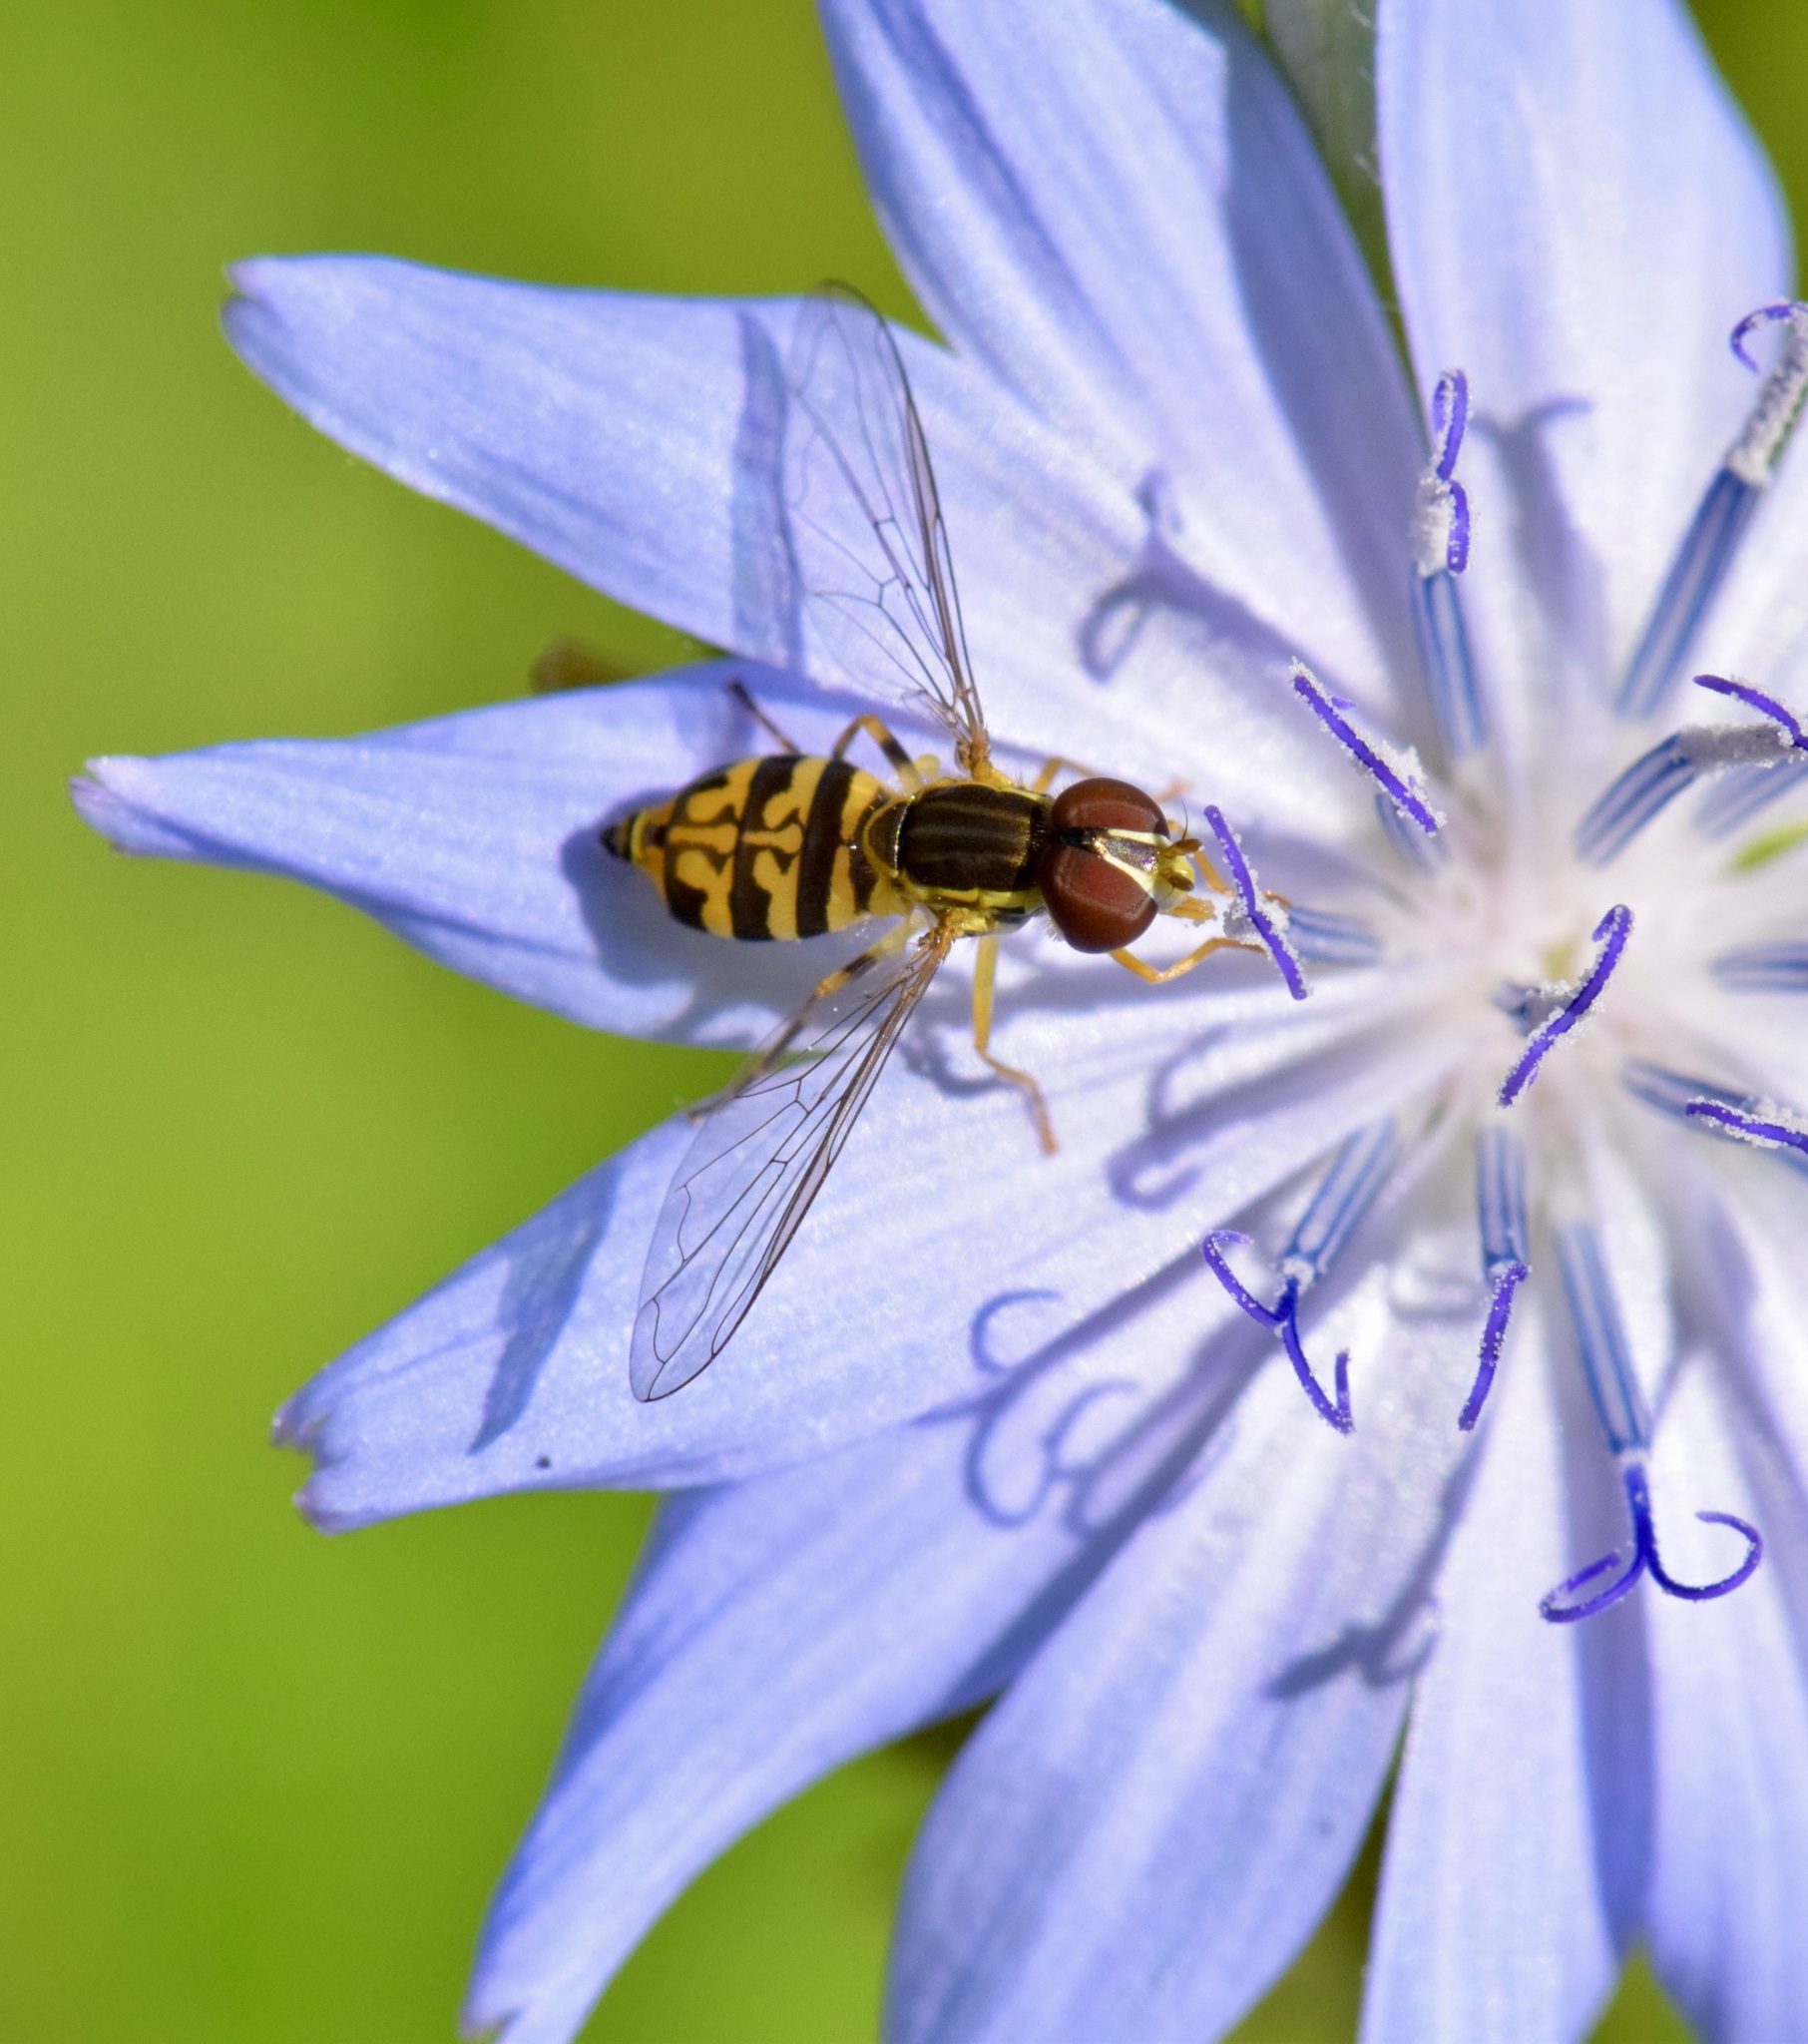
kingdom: Animalia
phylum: Arthropoda
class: Insecta
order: Diptera
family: Syrphidae
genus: Toxomerus
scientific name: Toxomerus geminatus
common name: Eastern calligrapher
